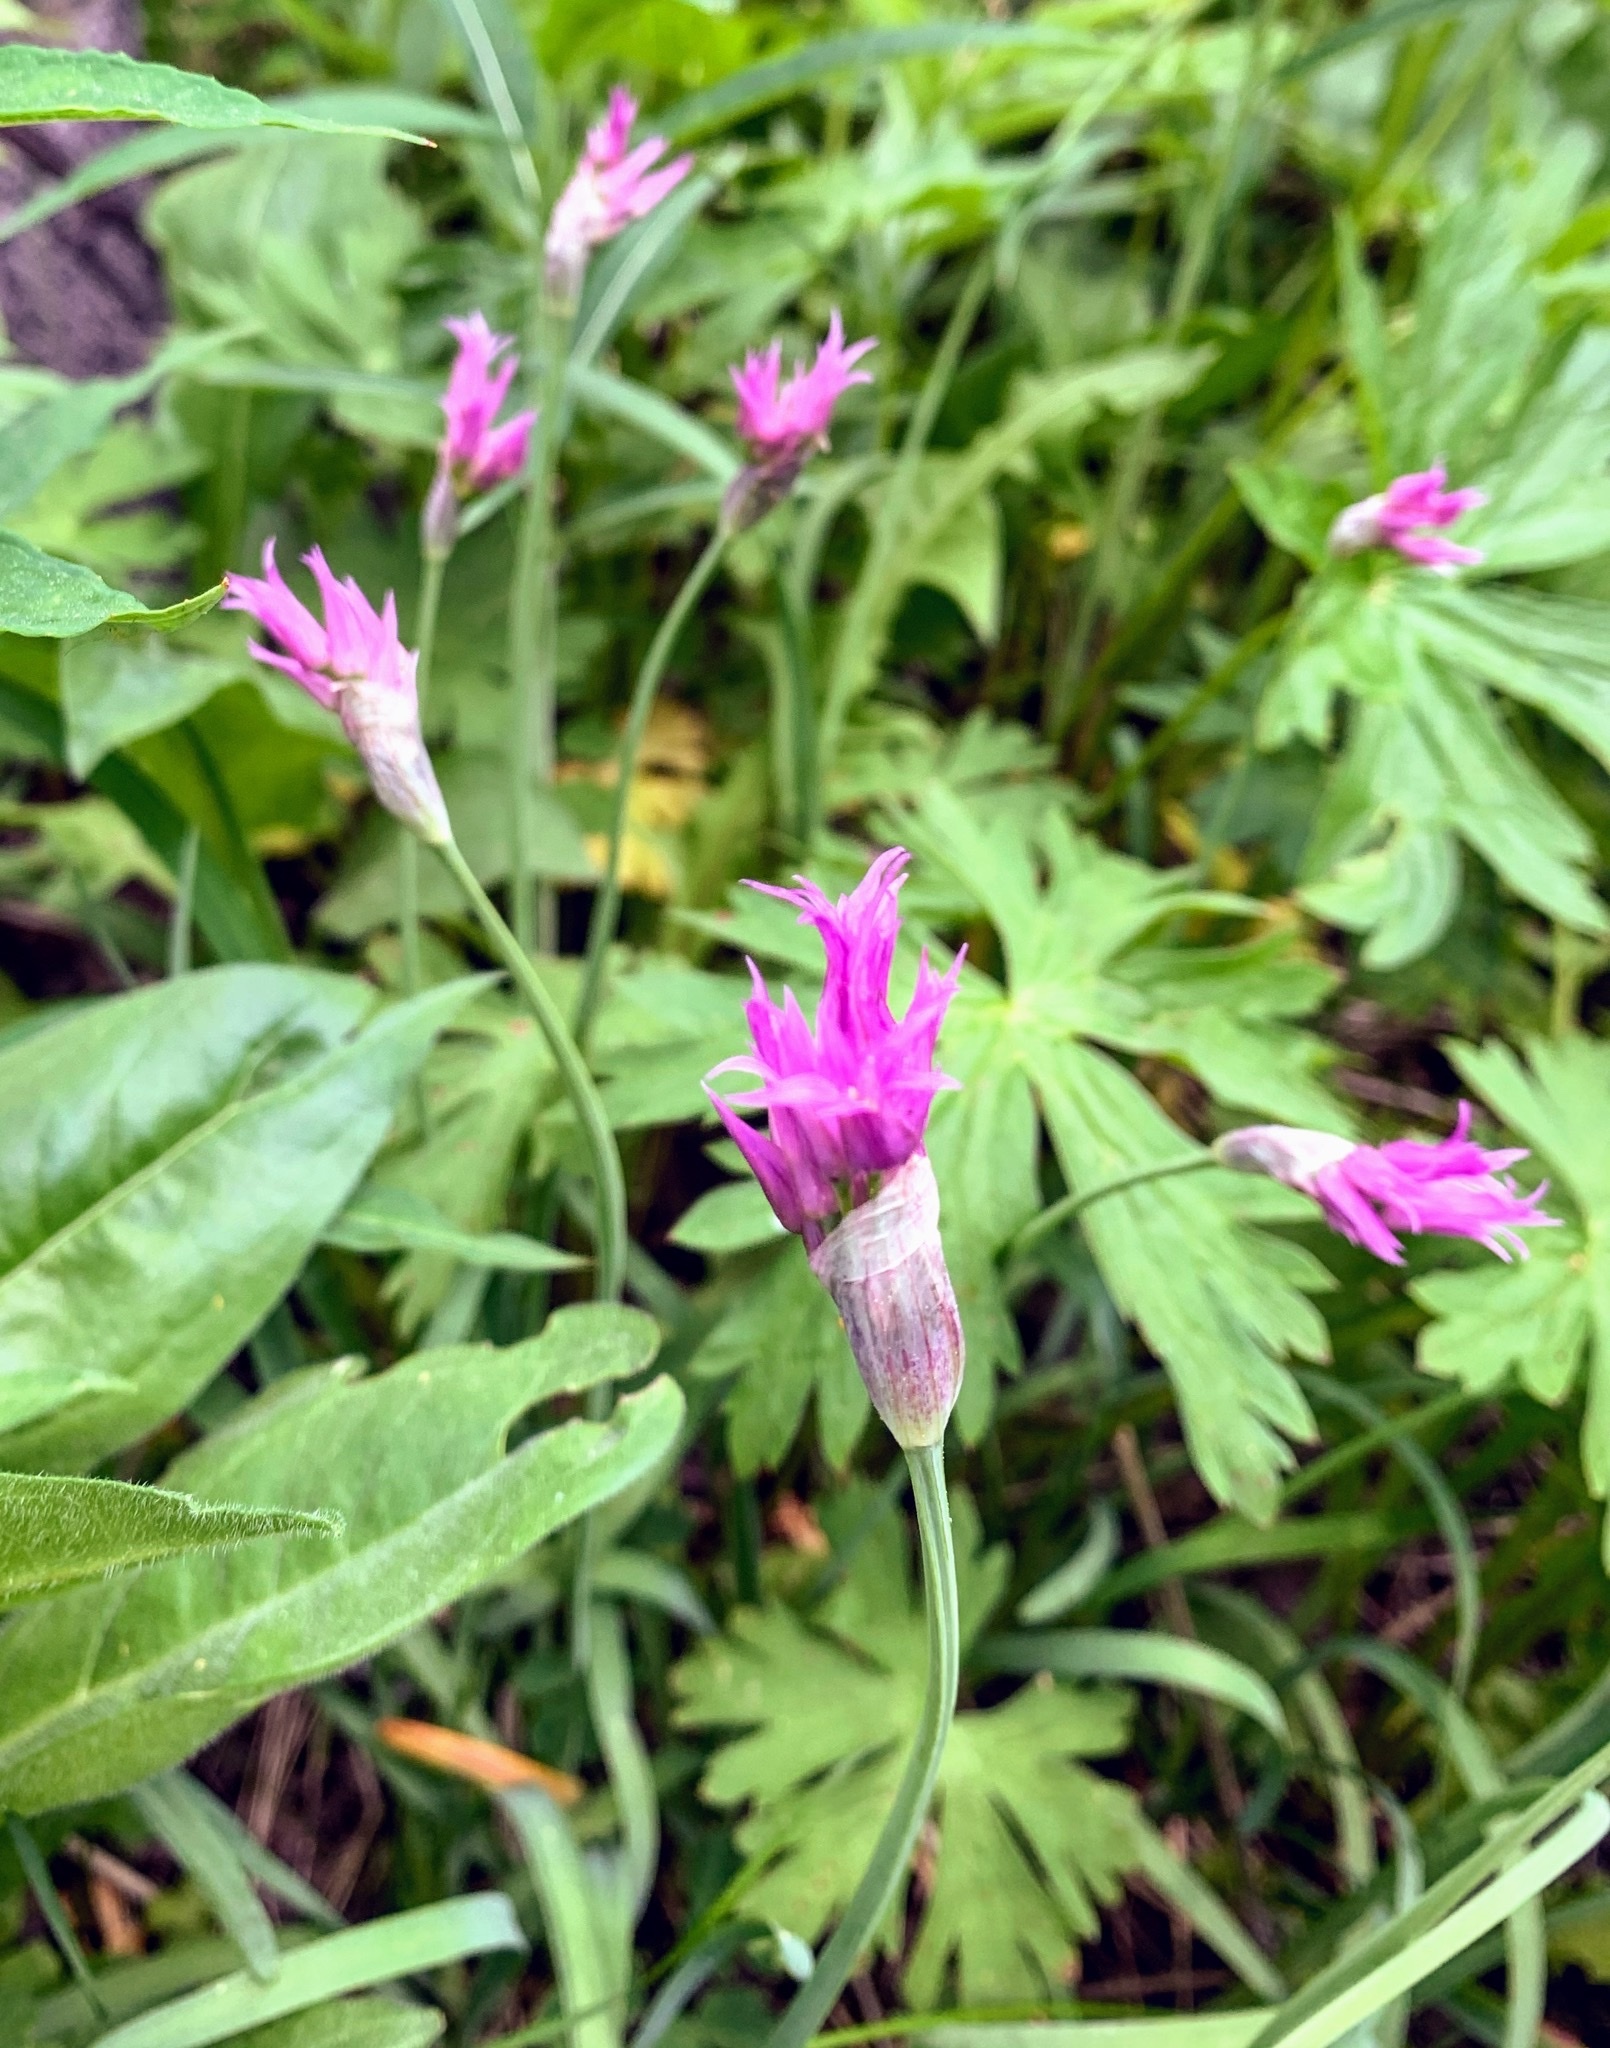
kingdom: Plantae
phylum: Tracheophyta
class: Liliopsida
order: Asparagales
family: Amaryllidaceae
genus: Allium
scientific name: Allium brevistylum
